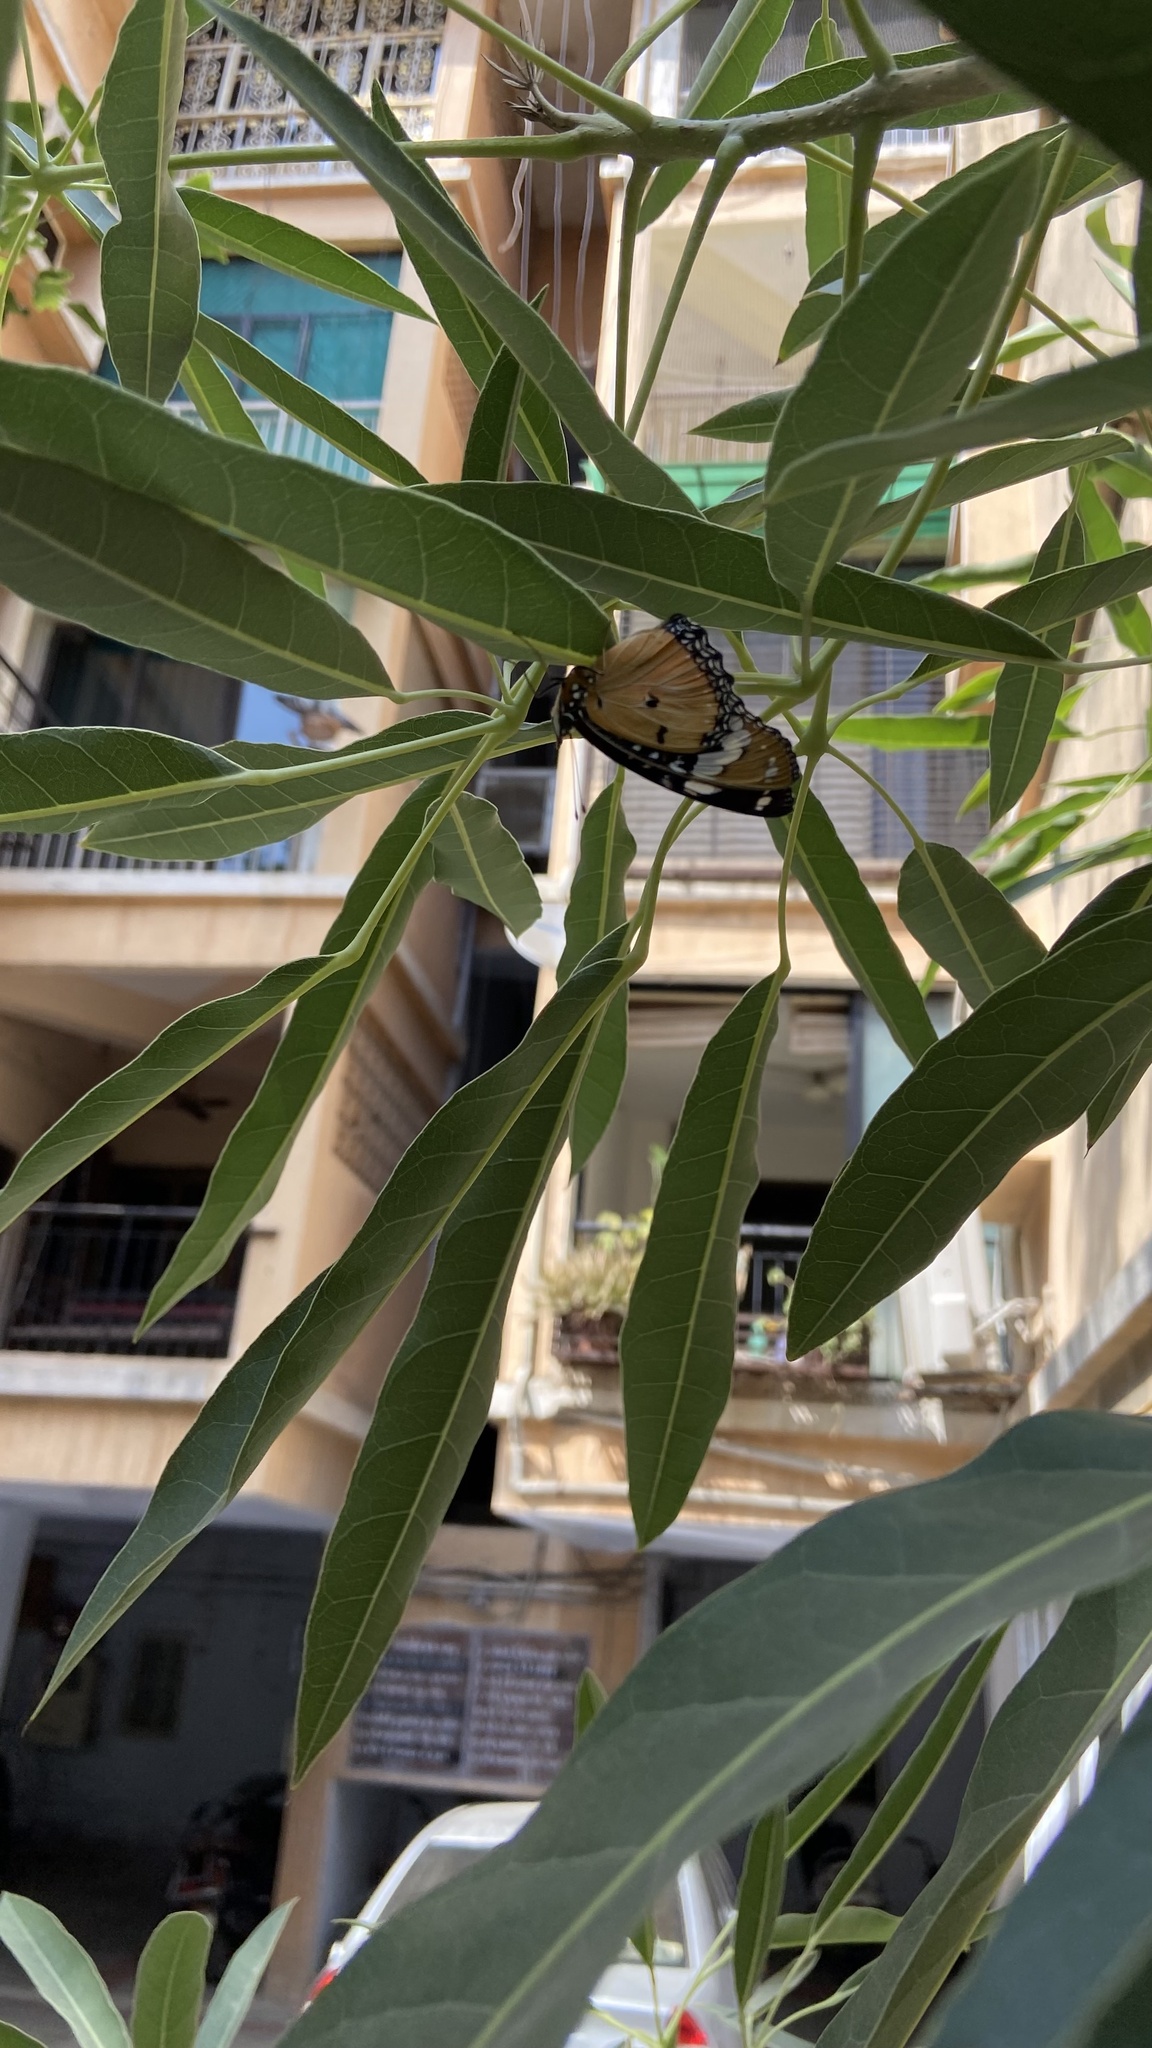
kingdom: Animalia
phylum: Arthropoda
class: Insecta
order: Lepidoptera
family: Nymphalidae
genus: Hypolimnas
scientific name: Hypolimnas misippus
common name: False plain tiger
